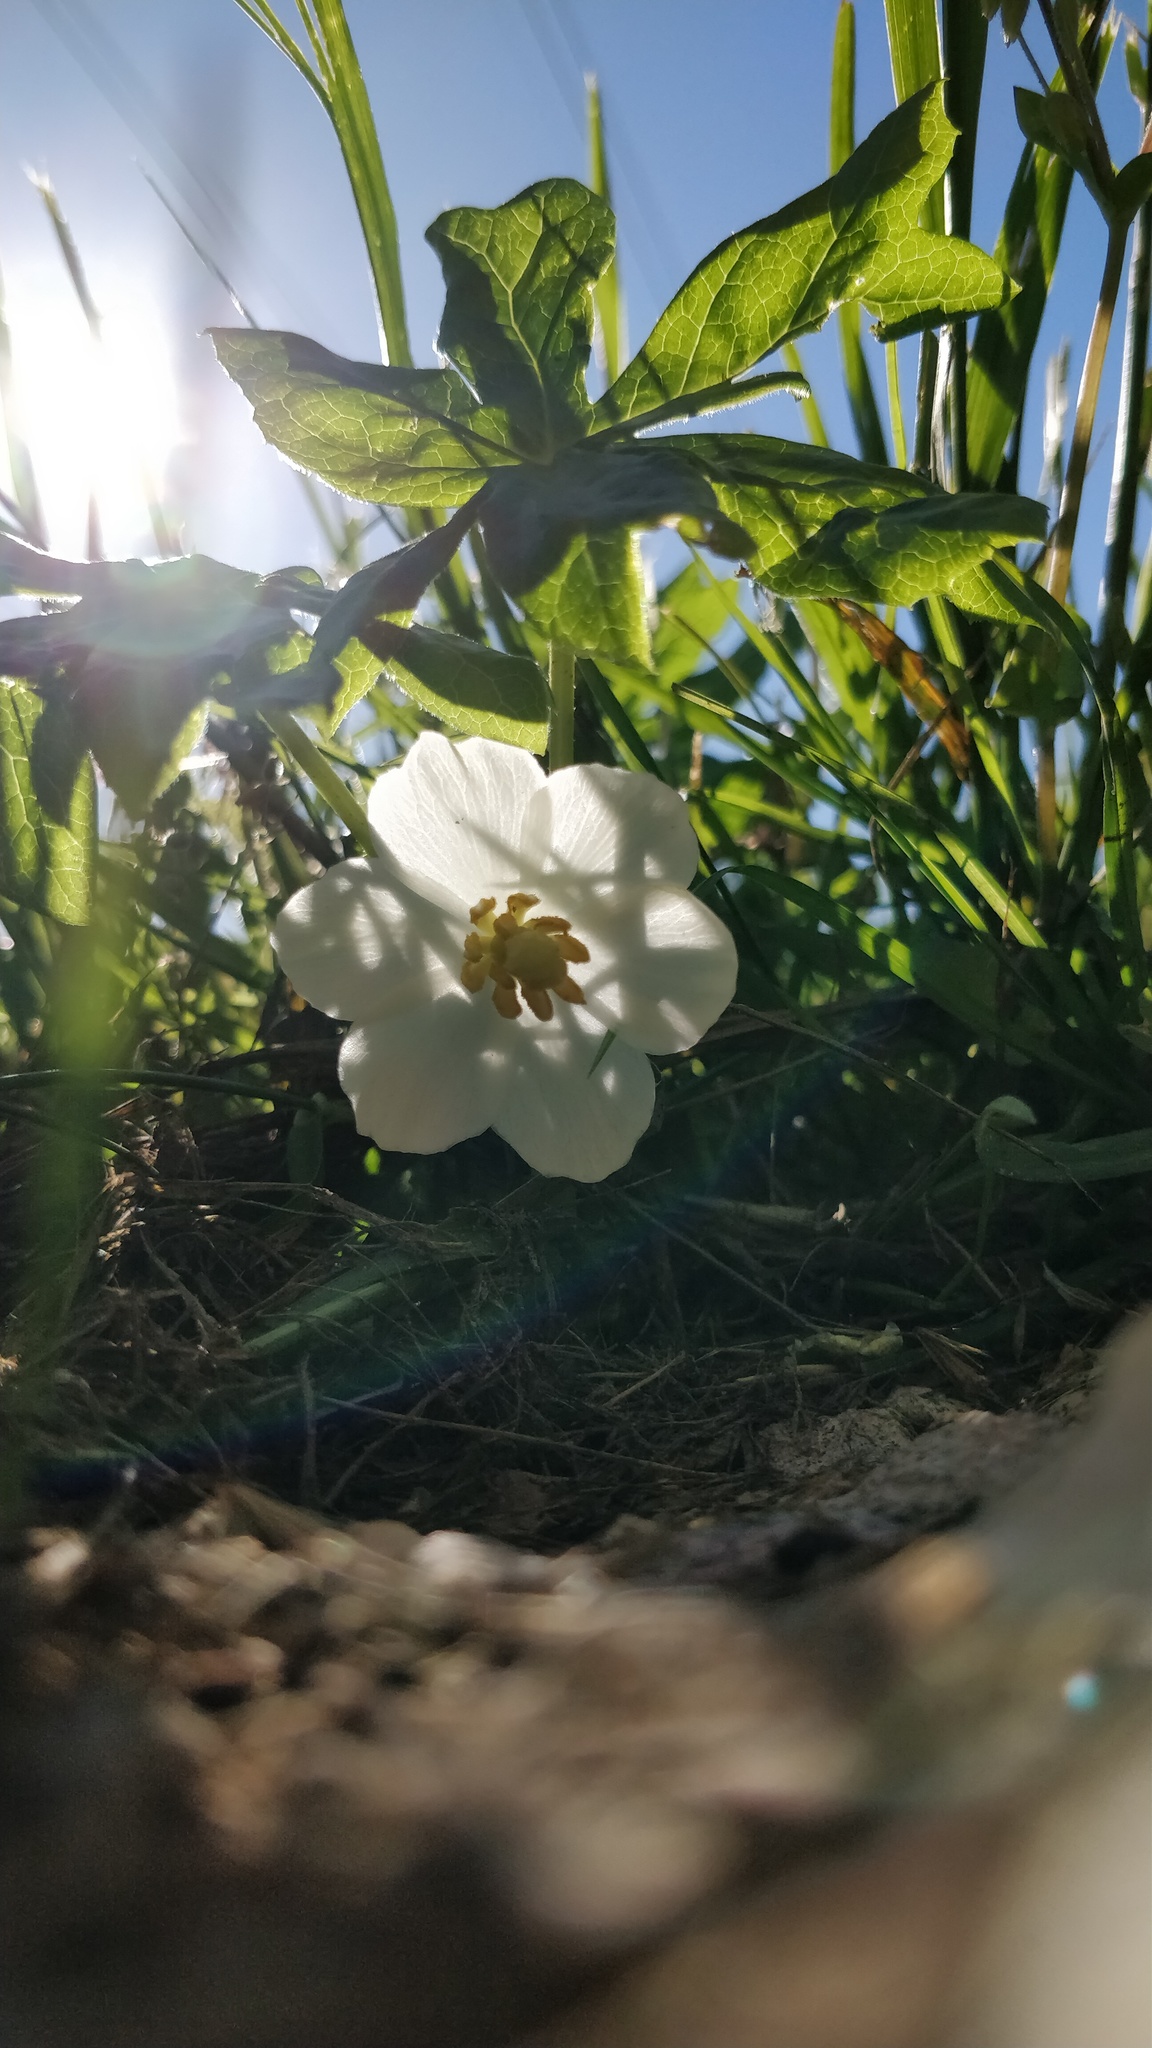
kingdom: Plantae
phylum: Tracheophyta
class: Magnoliopsida
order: Ranunculales
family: Berberidaceae
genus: Podophyllum
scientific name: Podophyllum peltatum
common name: Wild mandrake
